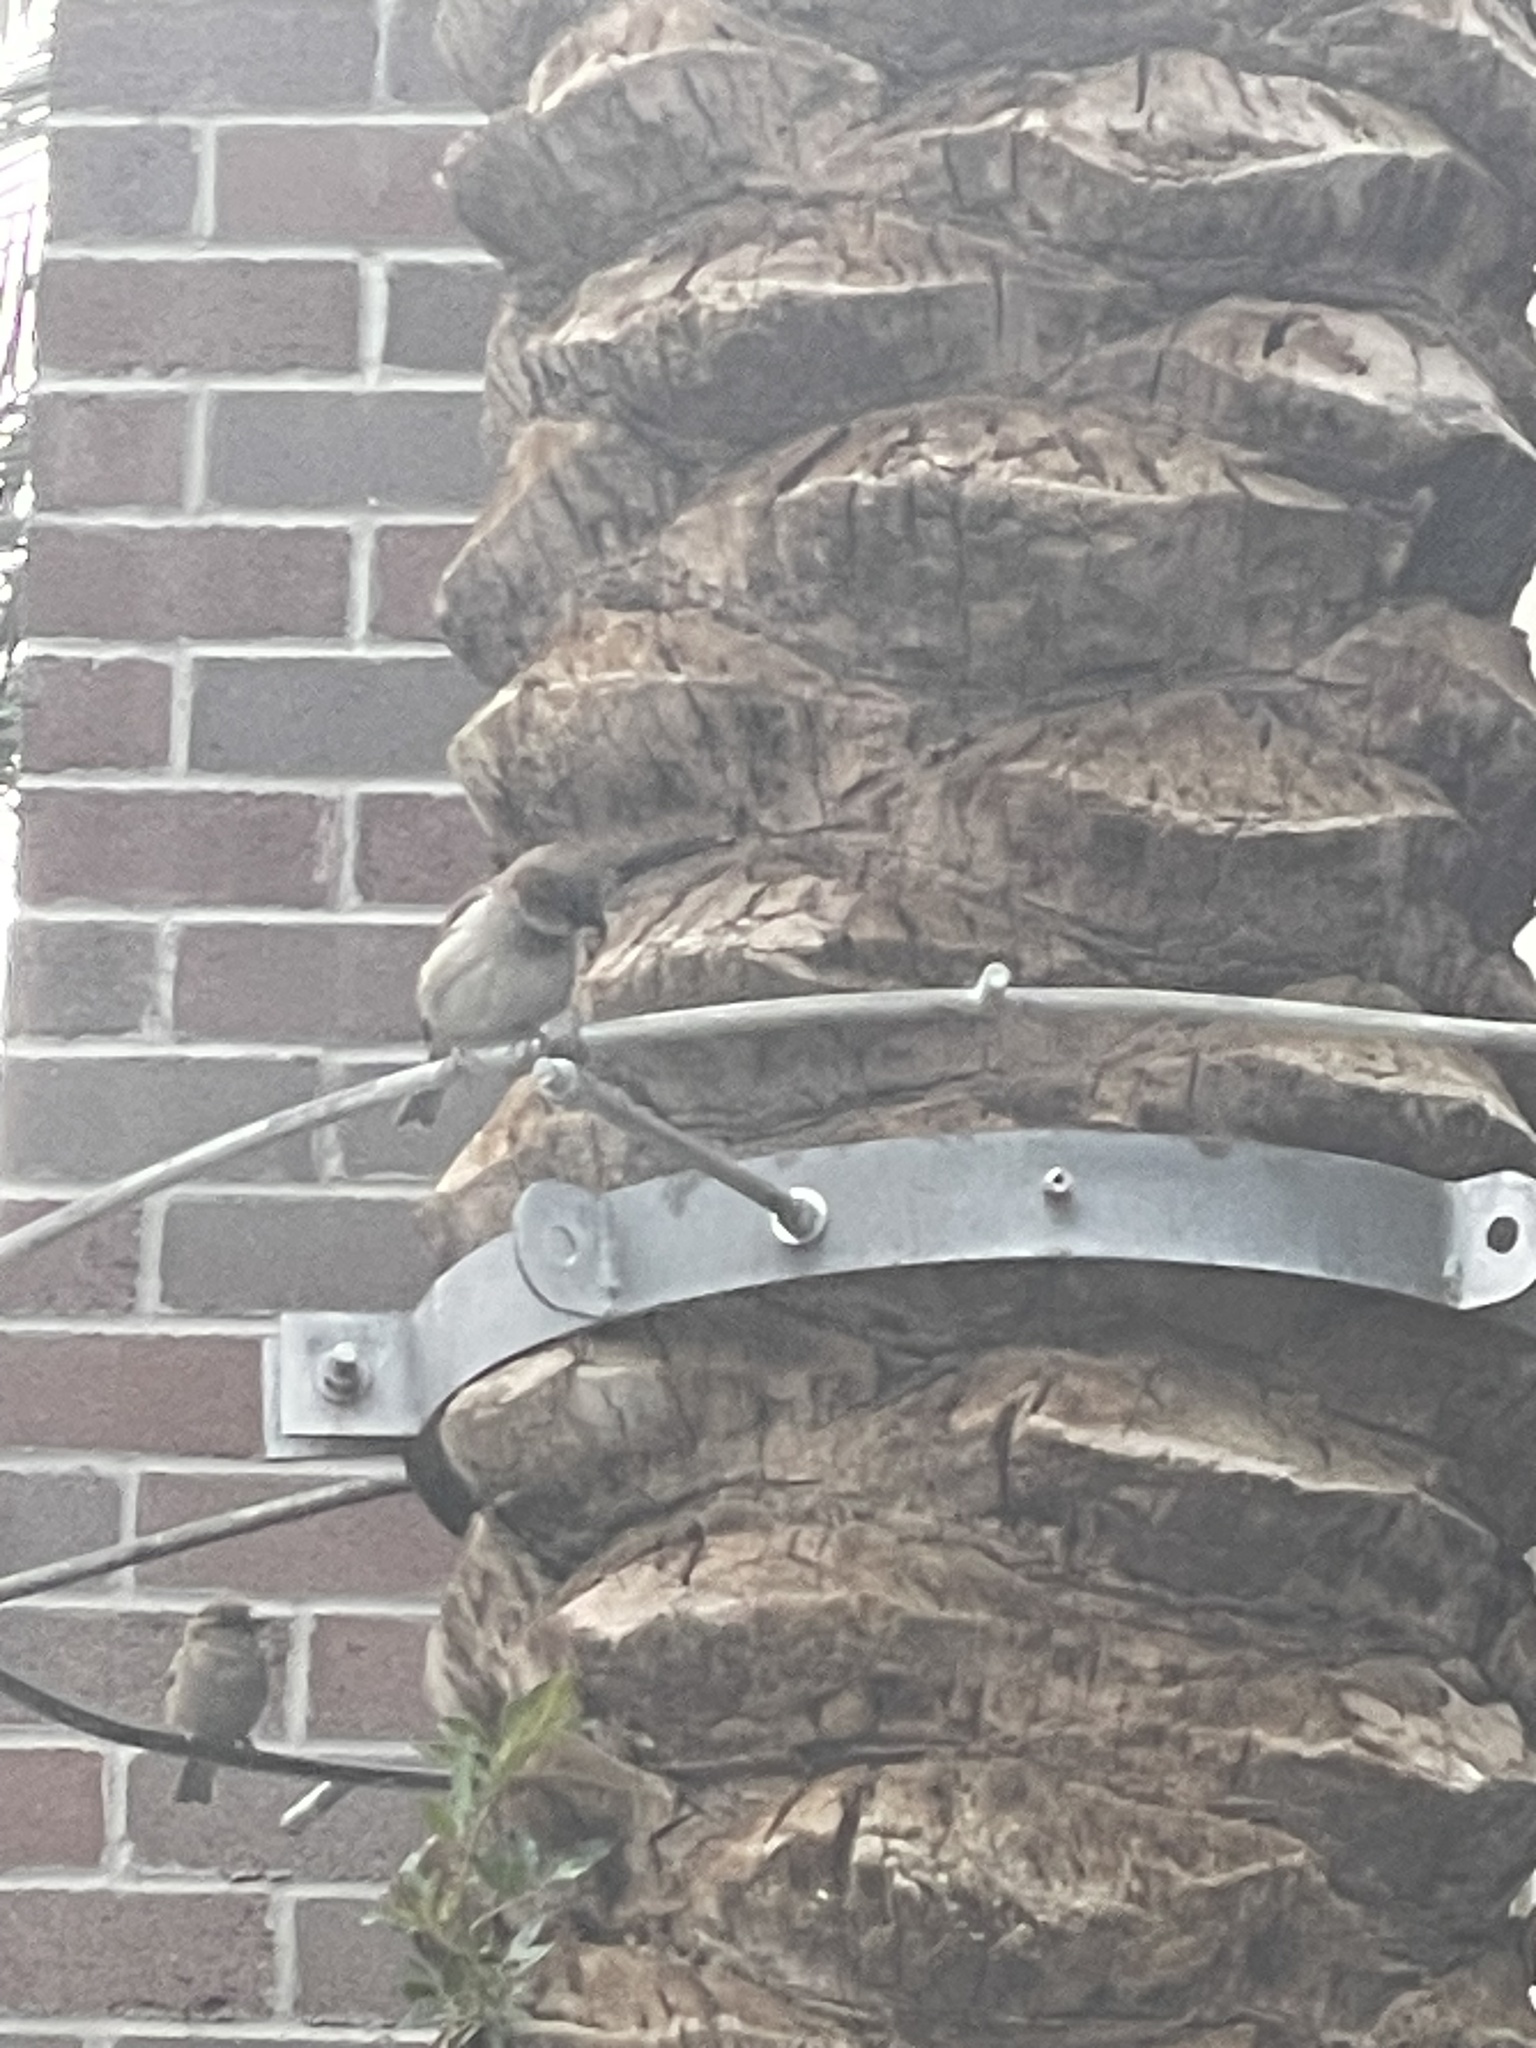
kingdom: Animalia
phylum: Chordata
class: Aves
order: Passeriformes
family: Passeridae
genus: Passer
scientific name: Passer domesticus
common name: House sparrow
